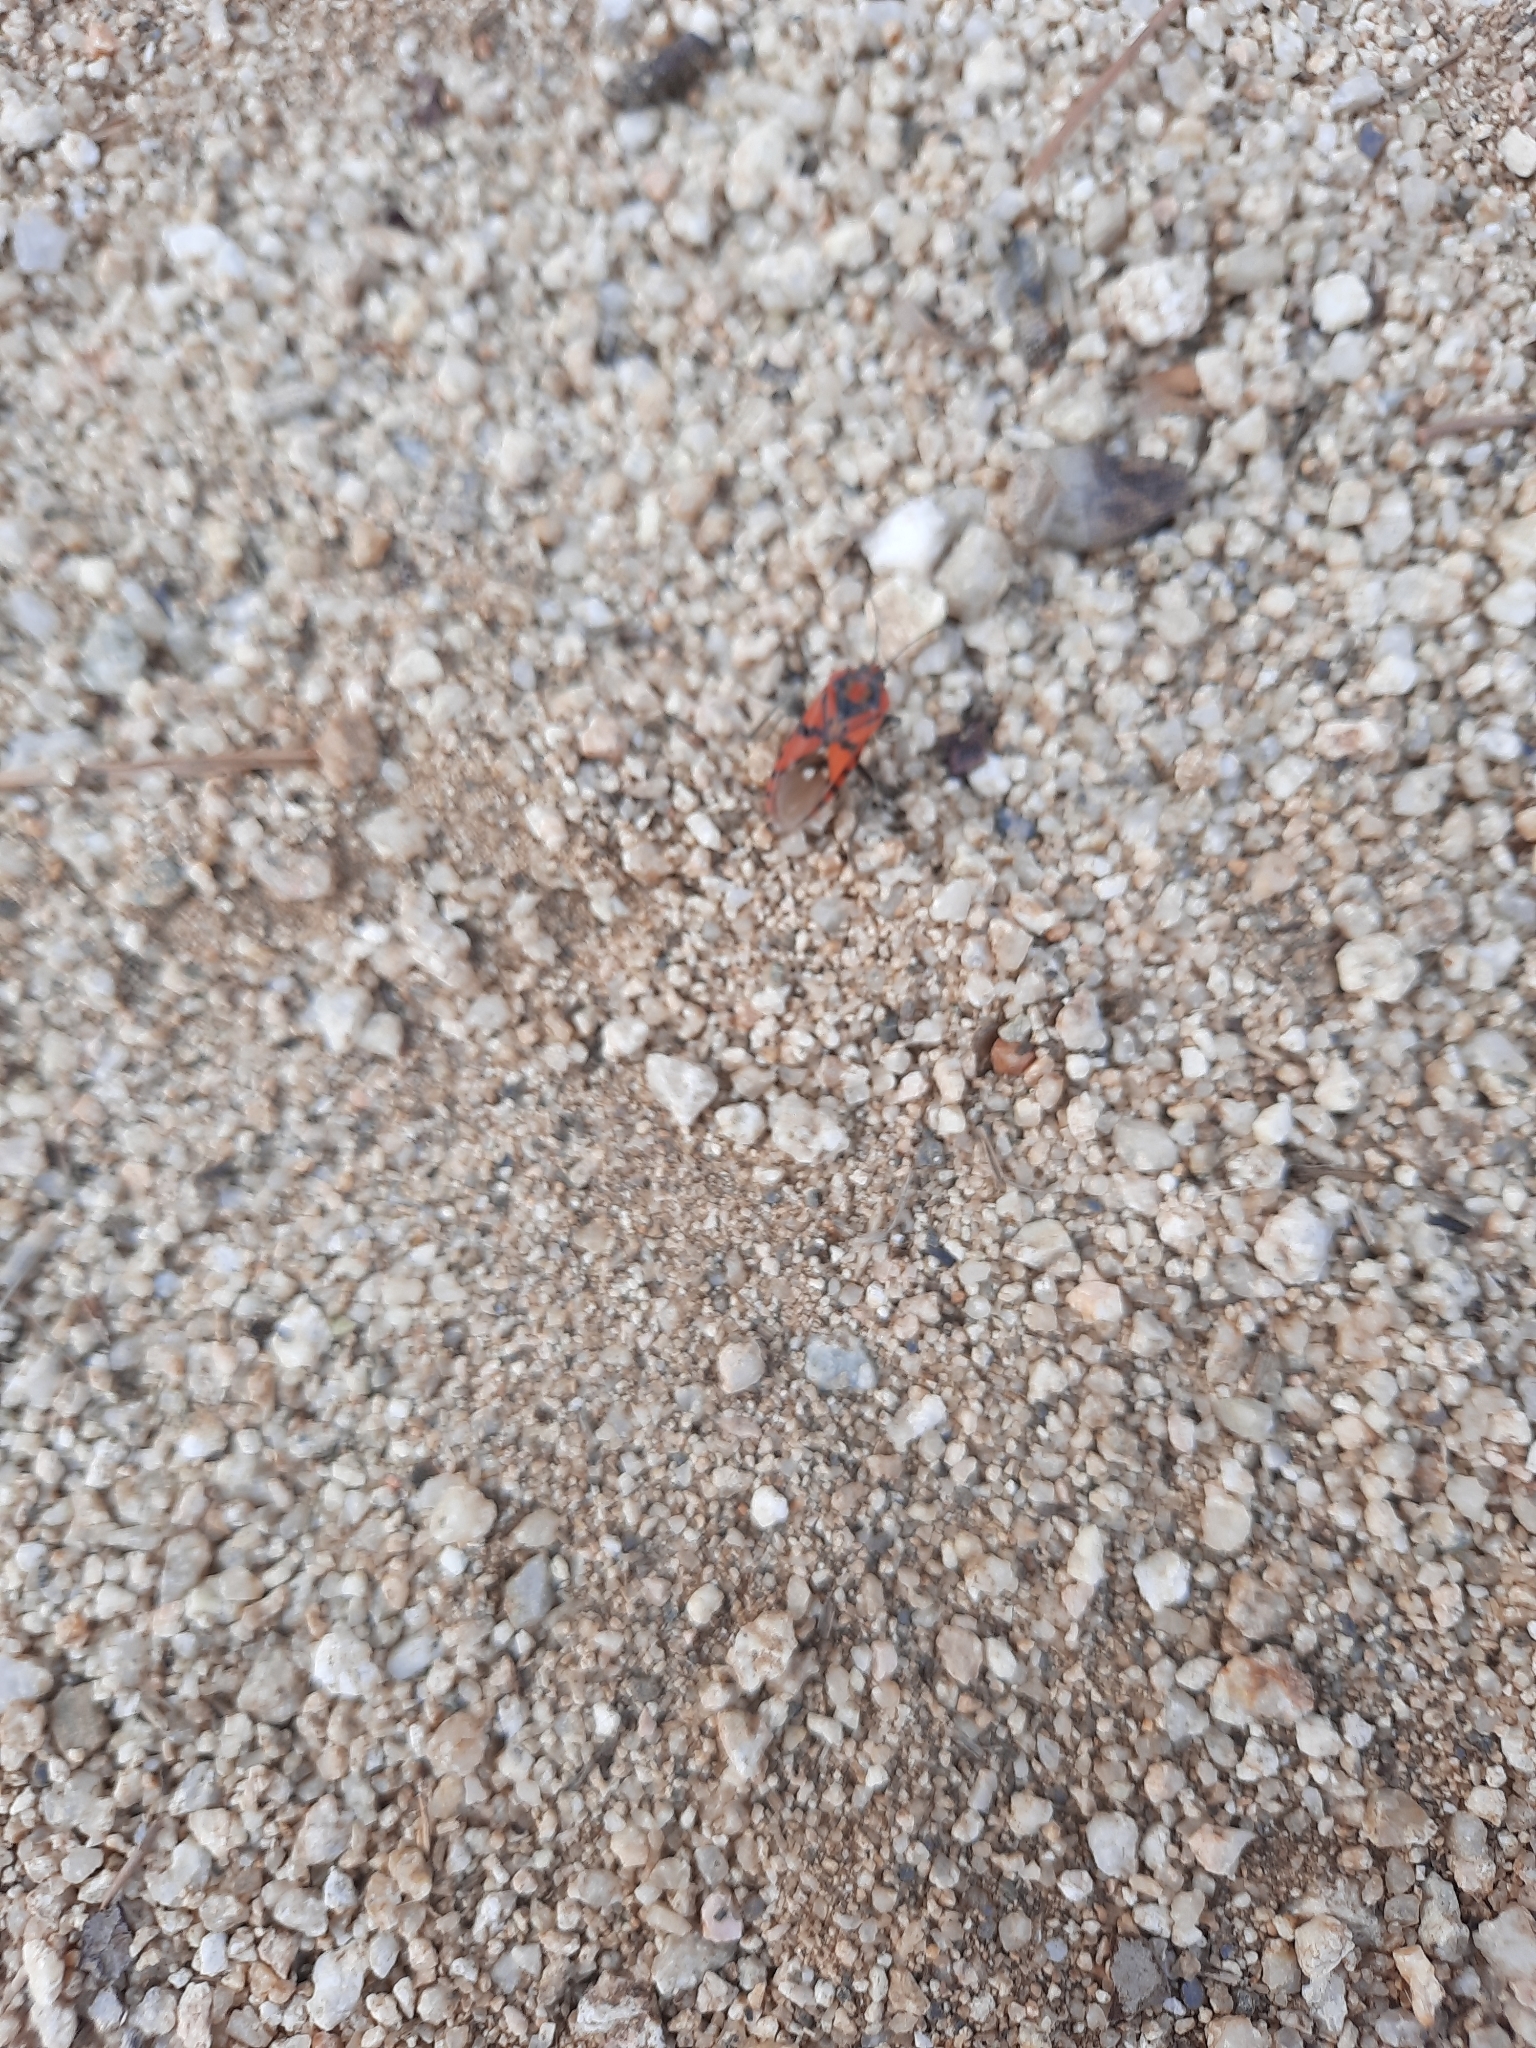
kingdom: Animalia
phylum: Arthropoda
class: Insecta
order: Hemiptera
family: Lygaeidae
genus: Spilostethus
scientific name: Spilostethus pandurus
